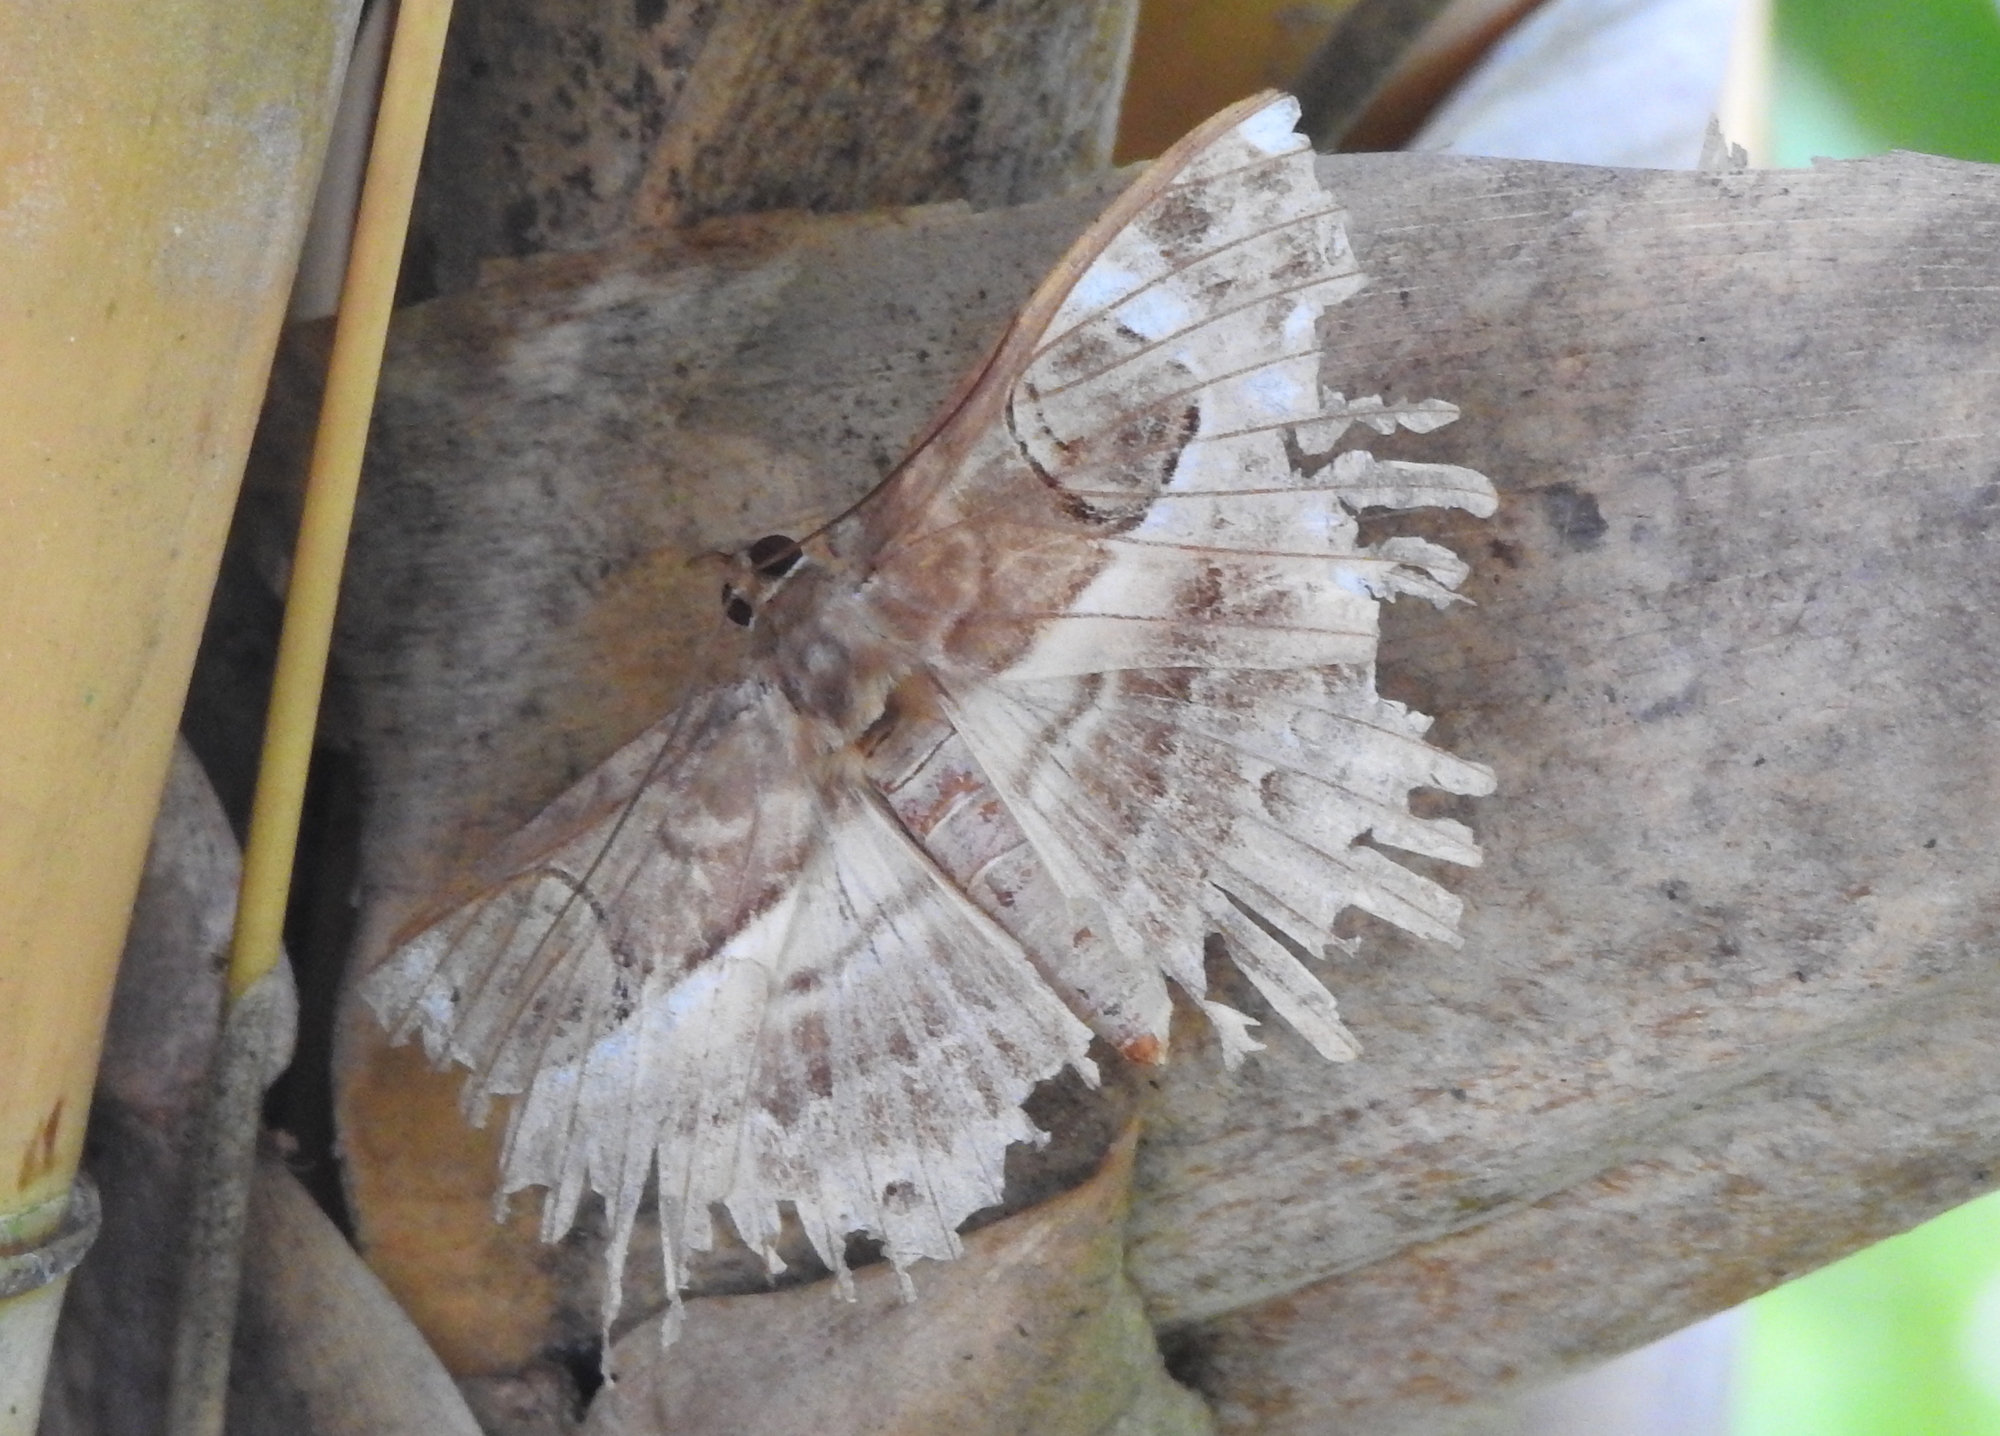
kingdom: Animalia
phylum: Arthropoda
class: Insecta
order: Lepidoptera
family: Erebidae
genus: Erebus
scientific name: Erebus ephesperis
